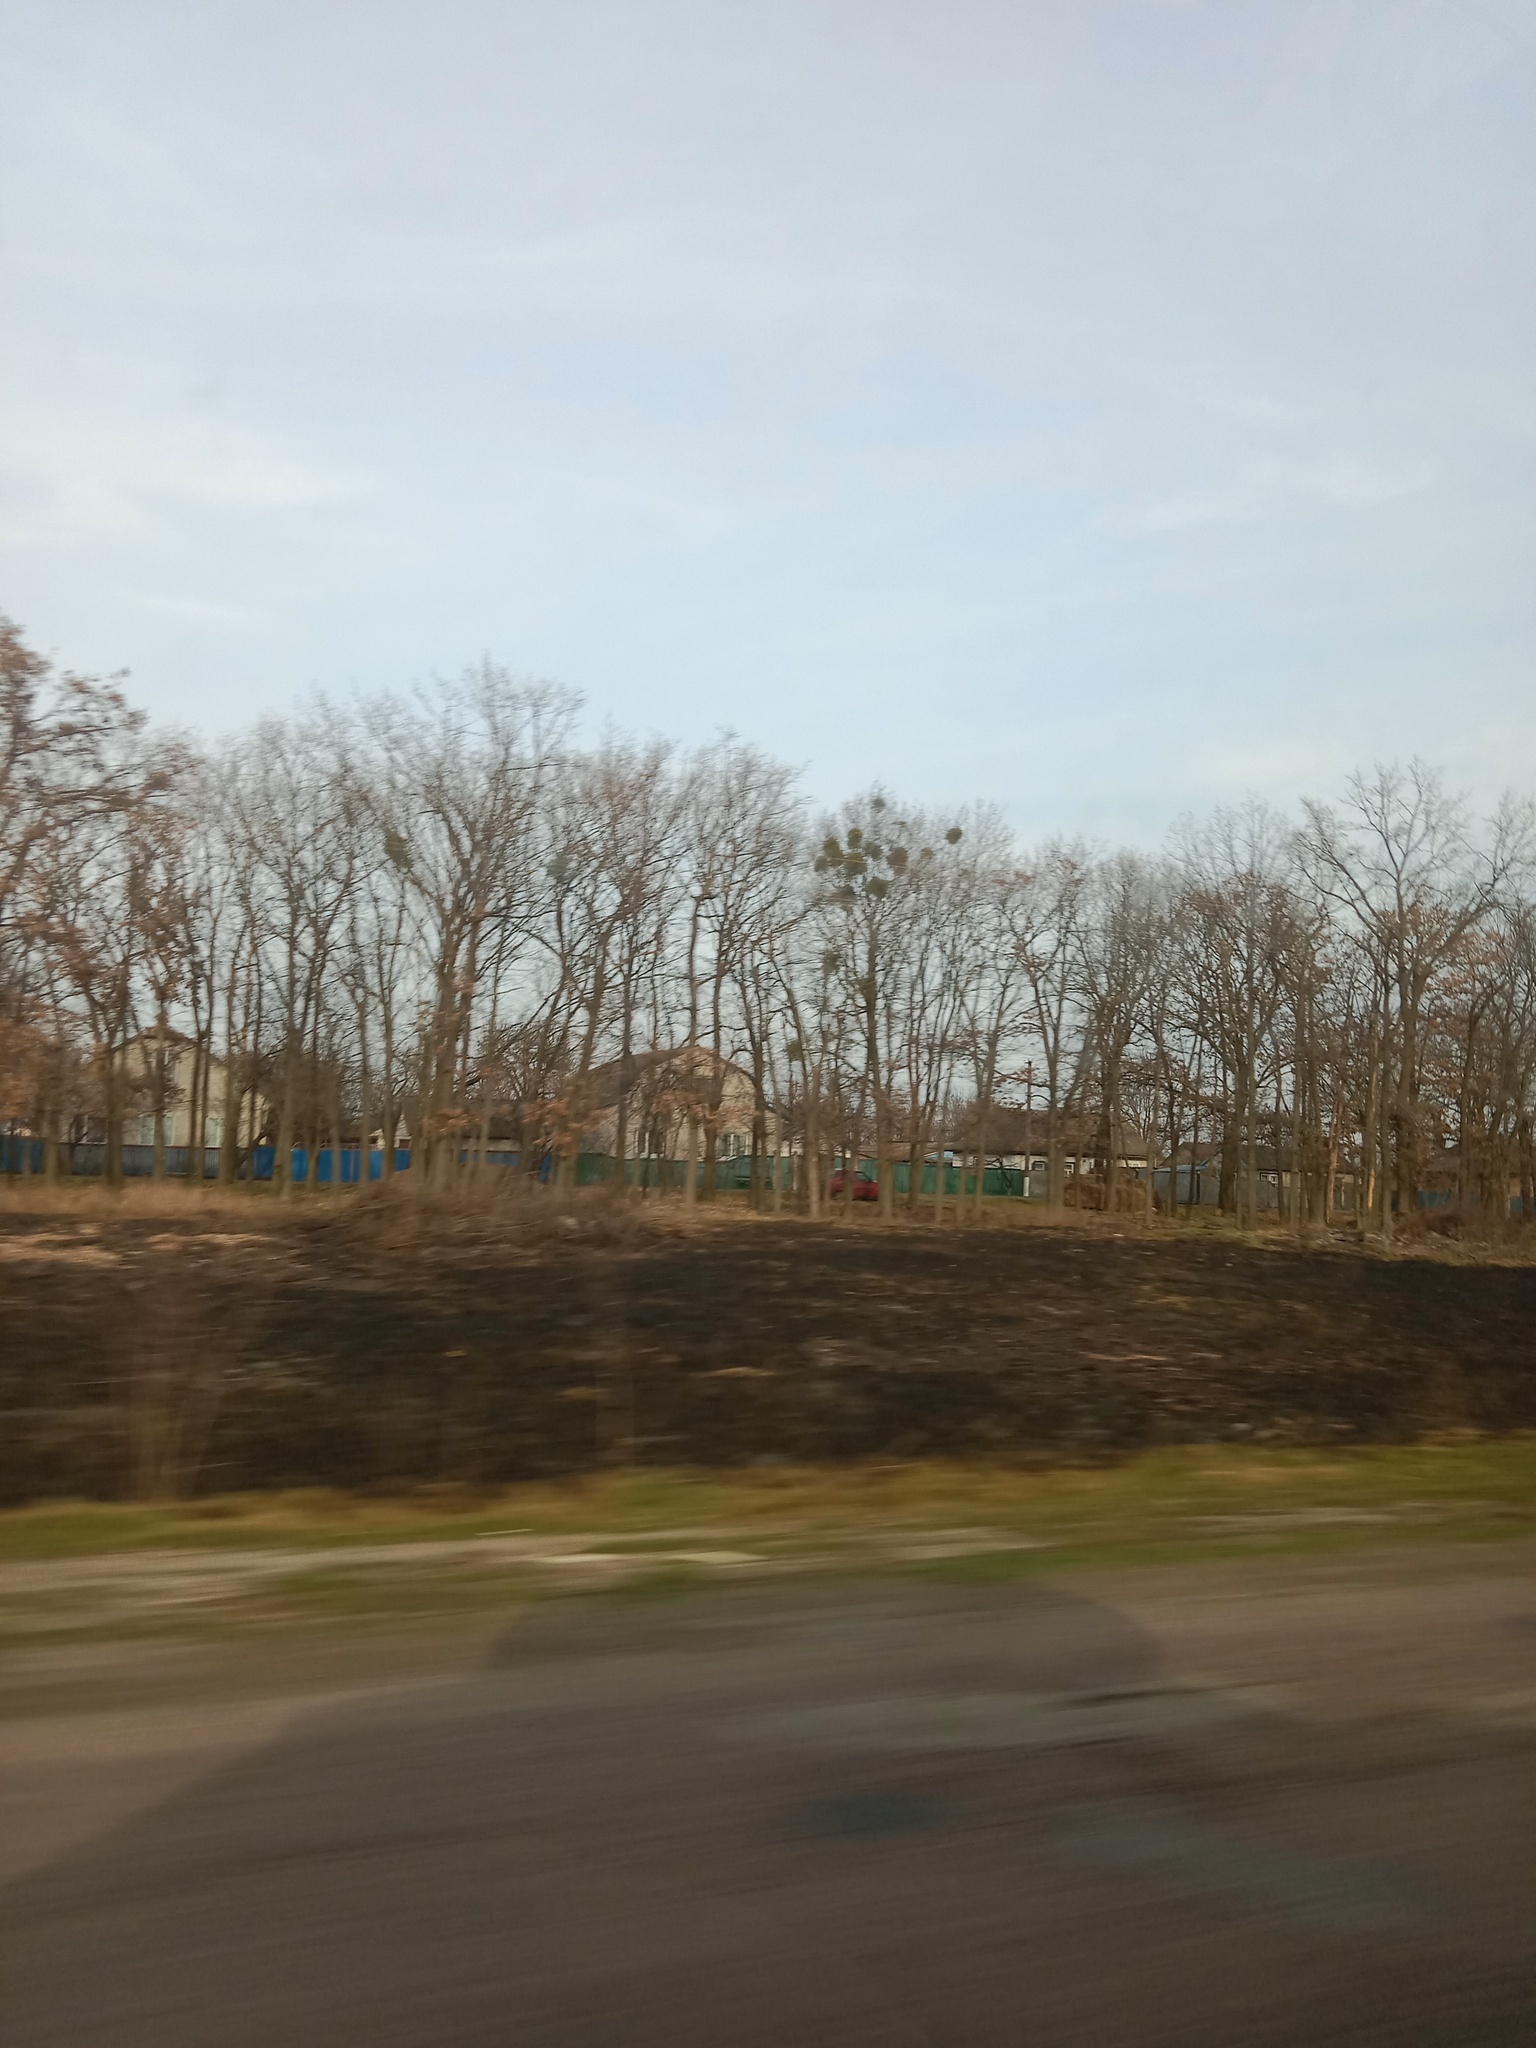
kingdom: Plantae
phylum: Tracheophyta
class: Magnoliopsida
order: Santalales
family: Viscaceae
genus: Viscum
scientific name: Viscum album
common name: Mistletoe
